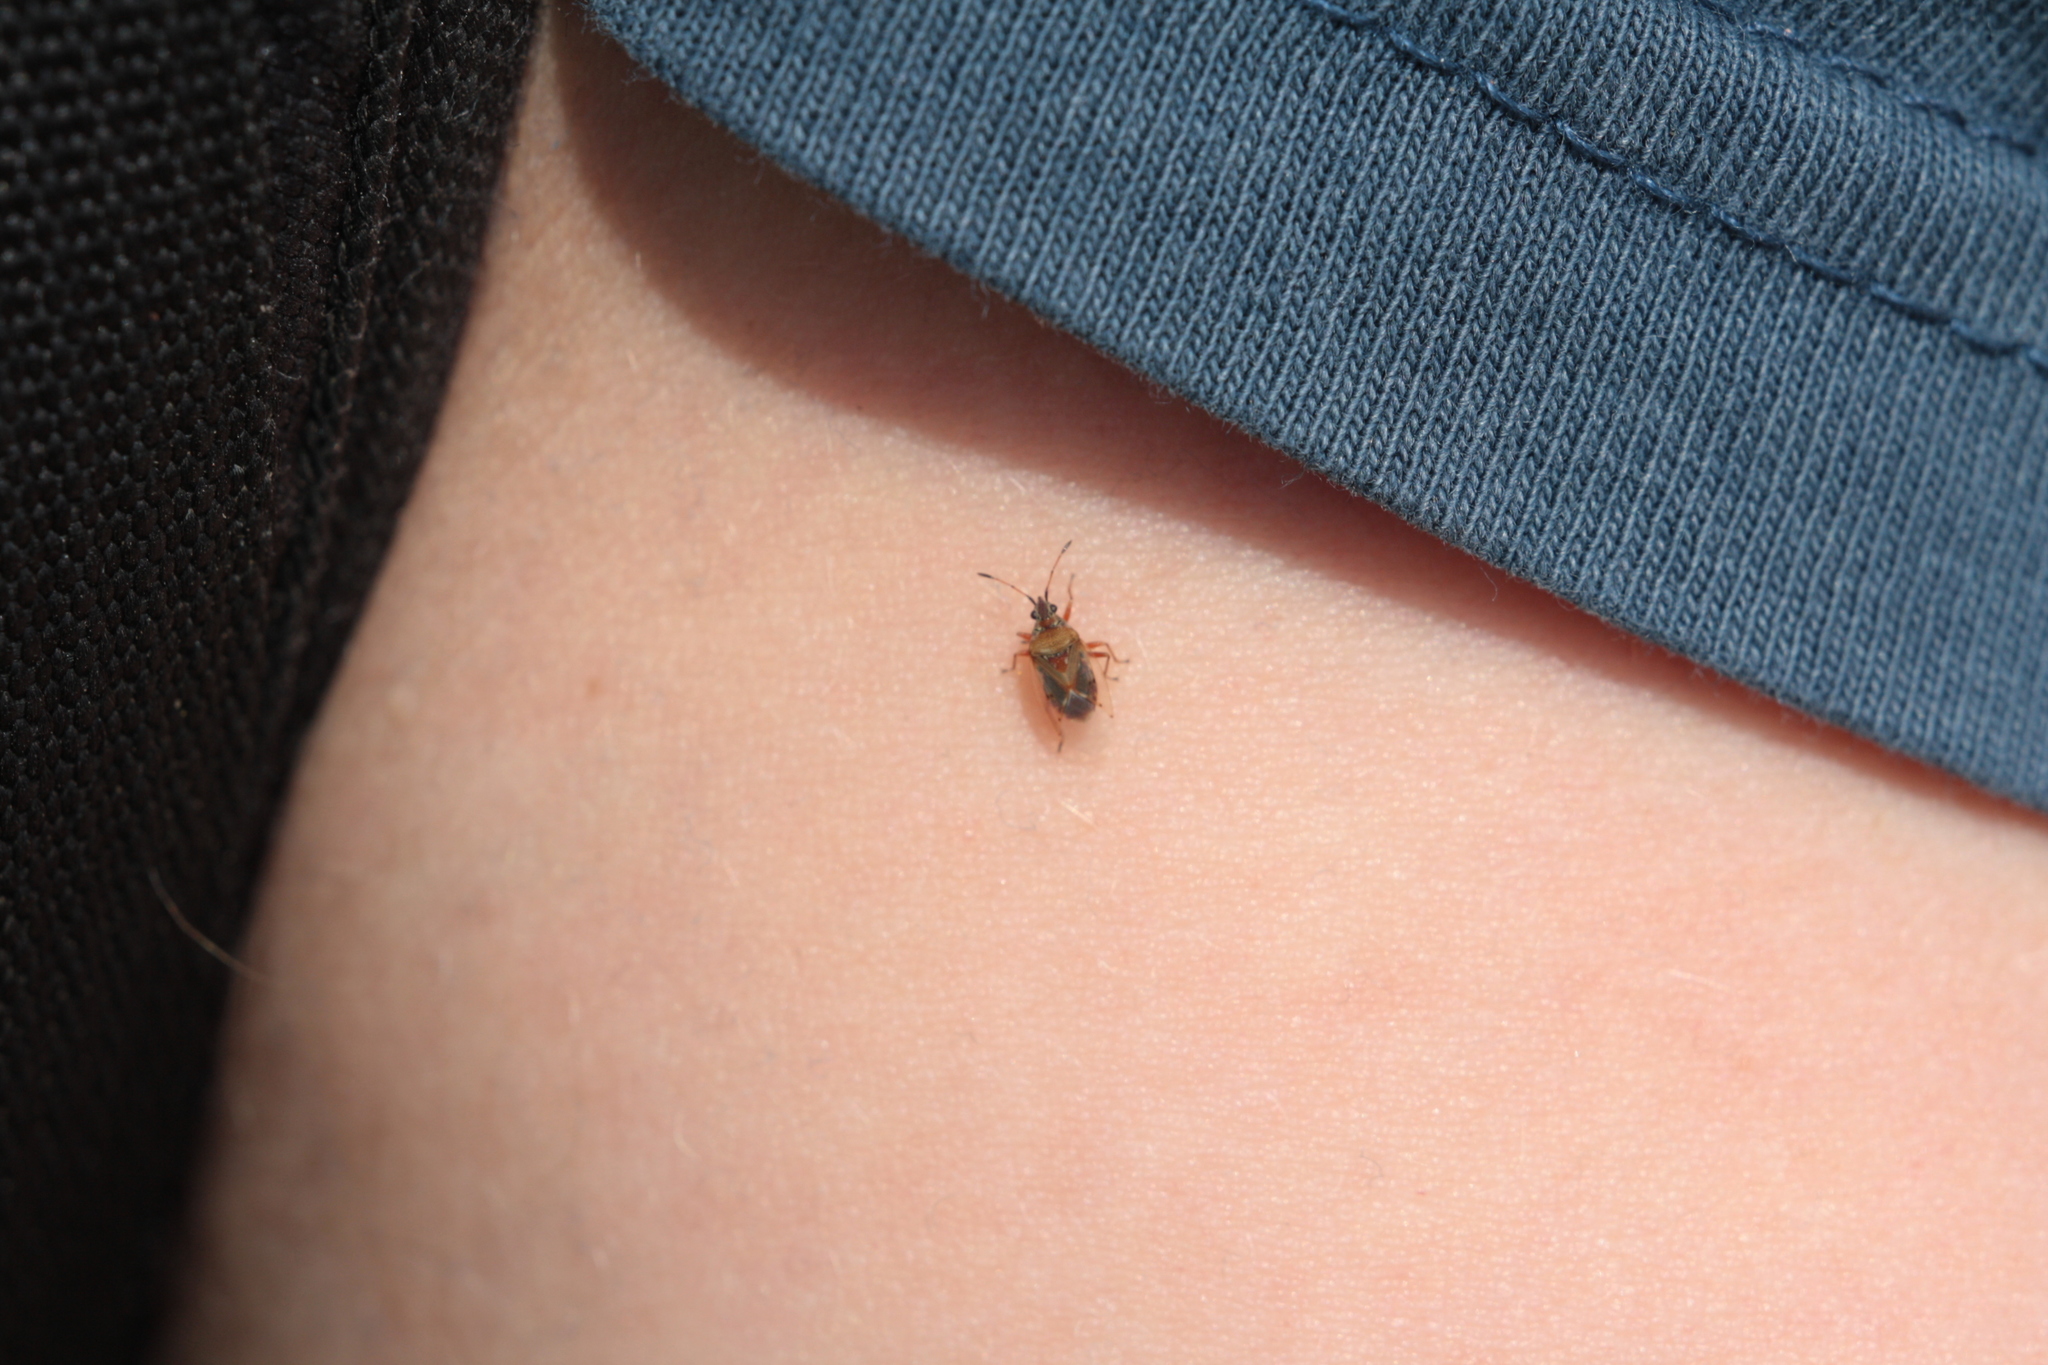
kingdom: Animalia
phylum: Arthropoda
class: Insecta
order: Hemiptera
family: Lygaeidae
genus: Kleidocerys
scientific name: Kleidocerys resedae
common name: Birch catkin bug
